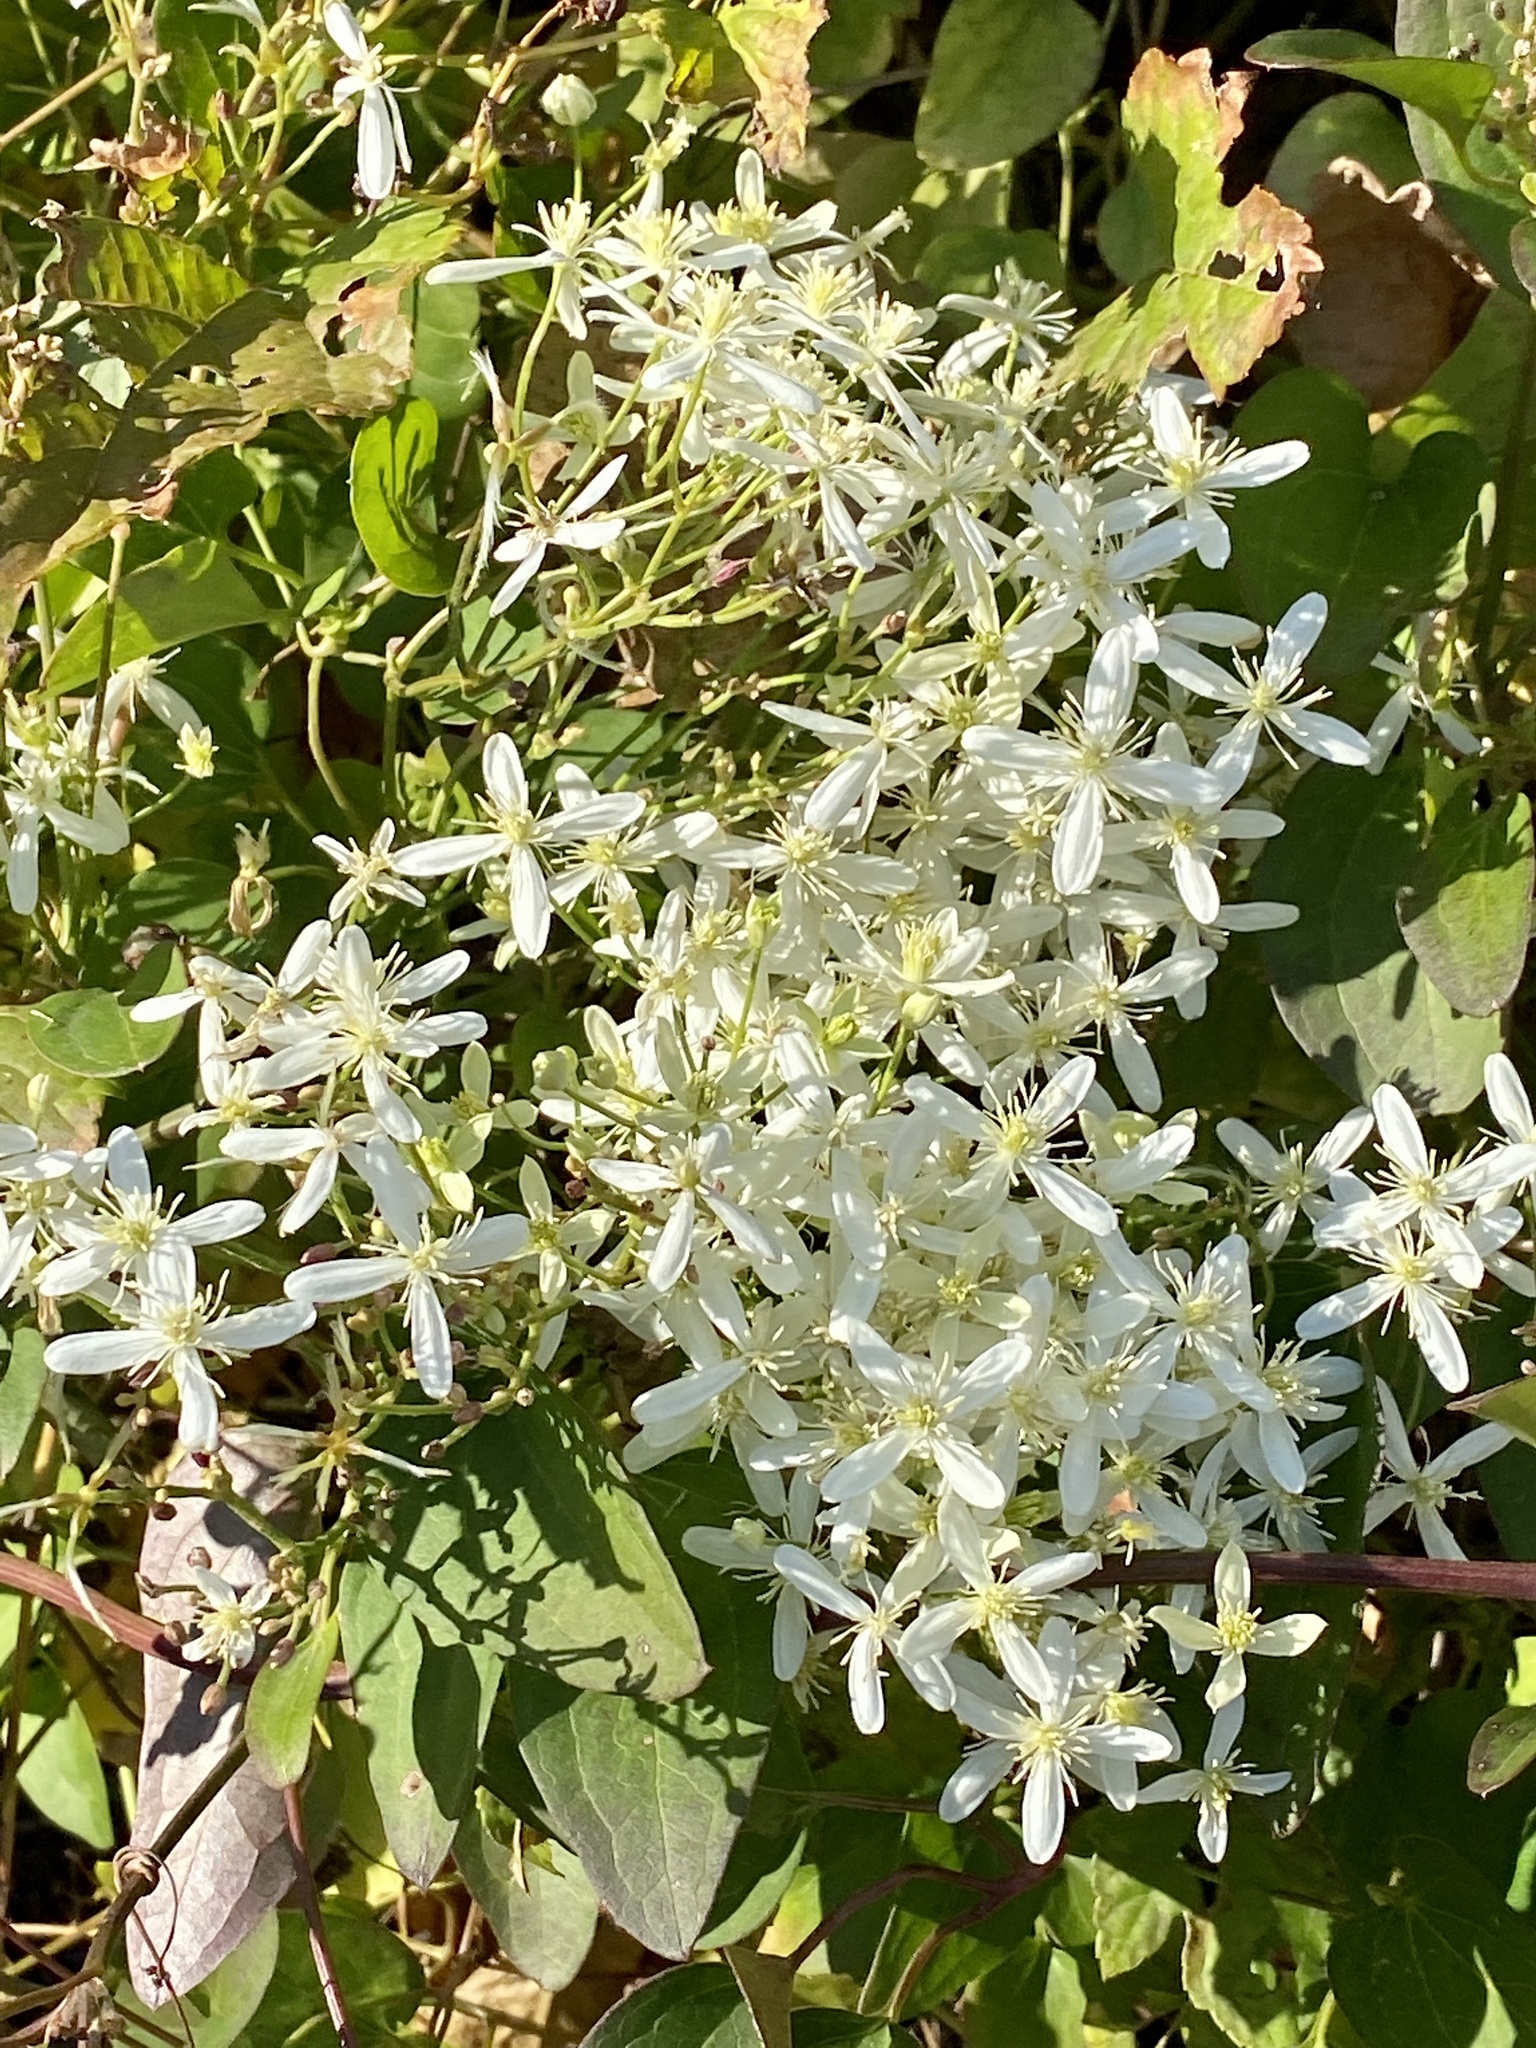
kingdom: Plantae
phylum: Tracheophyta
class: Magnoliopsida
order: Ranunculales
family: Ranunculaceae
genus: Clematis
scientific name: Clematis terniflora
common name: Sweet autumn clematis
